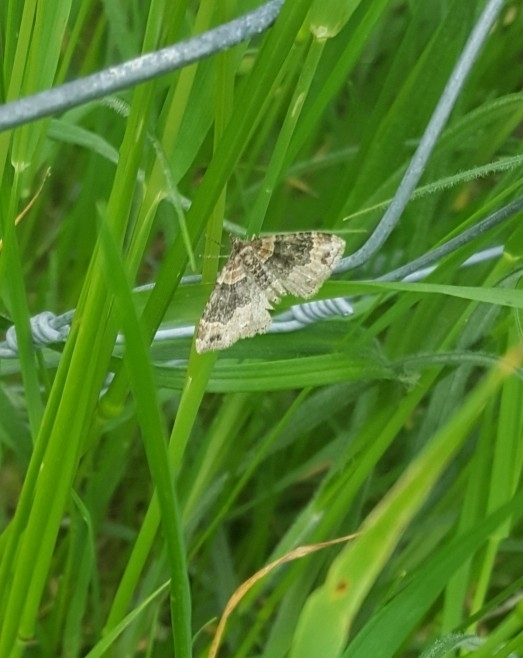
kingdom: Animalia
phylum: Arthropoda
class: Insecta
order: Lepidoptera
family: Geometridae
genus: Xanthorhoe
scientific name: Xanthorhoe ferrugata
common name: Dark-barred twin-spot carpet
